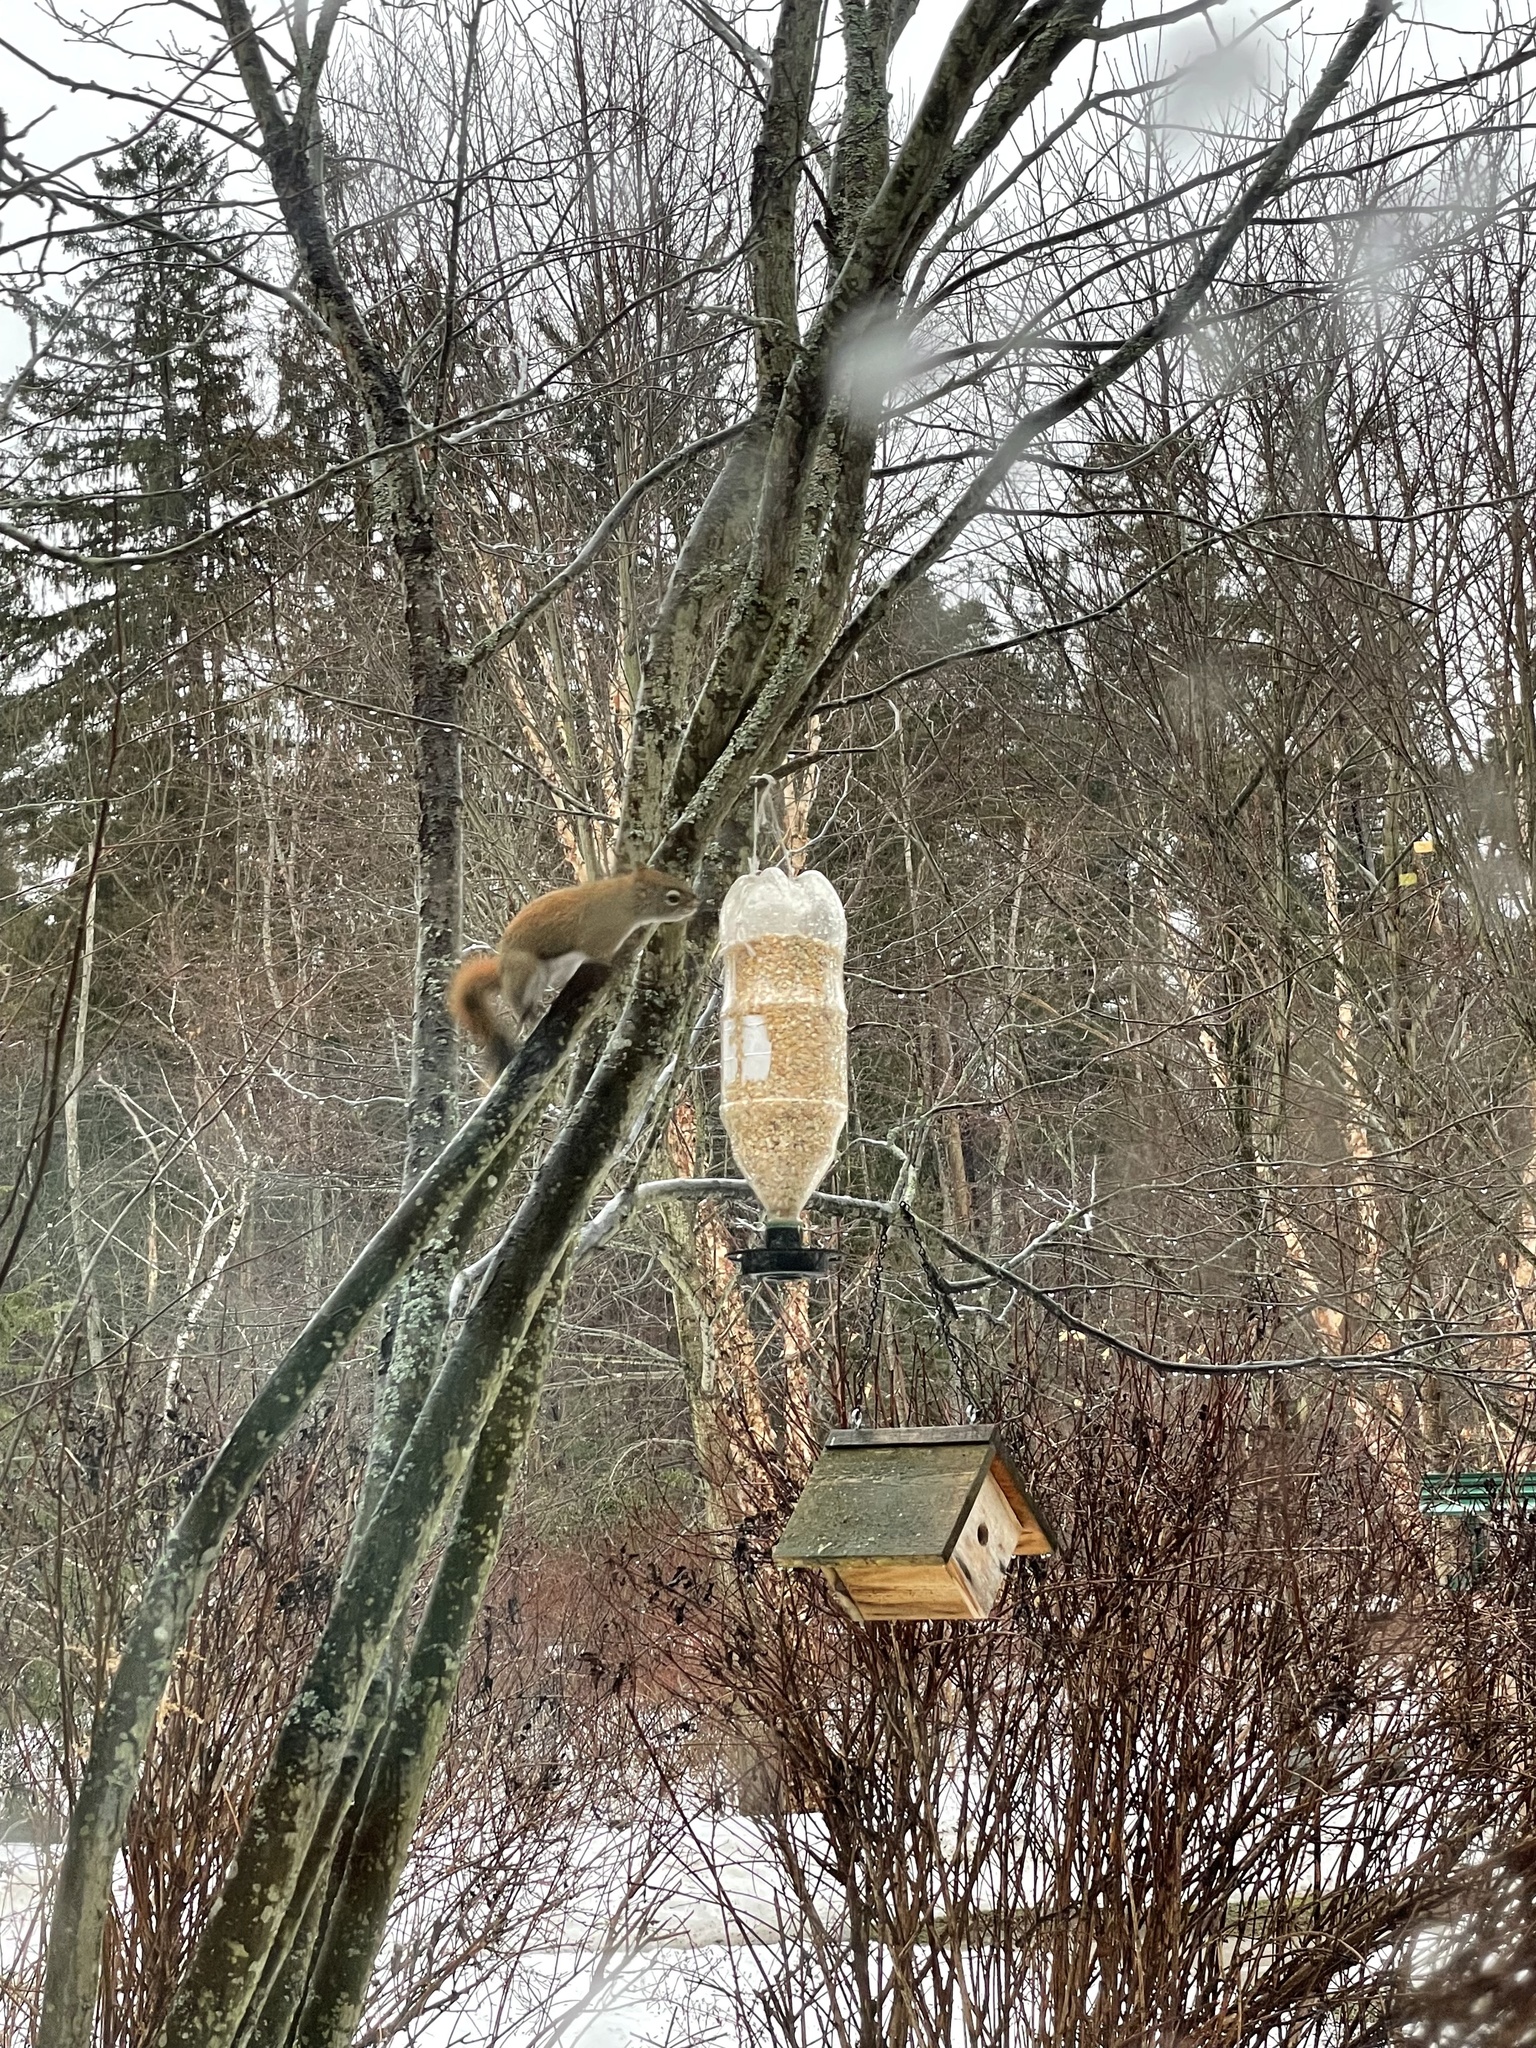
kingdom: Animalia
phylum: Chordata
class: Mammalia
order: Rodentia
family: Sciuridae
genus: Tamiasciurus
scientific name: Tamiasciurus hudsonicus
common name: Red squirrel
